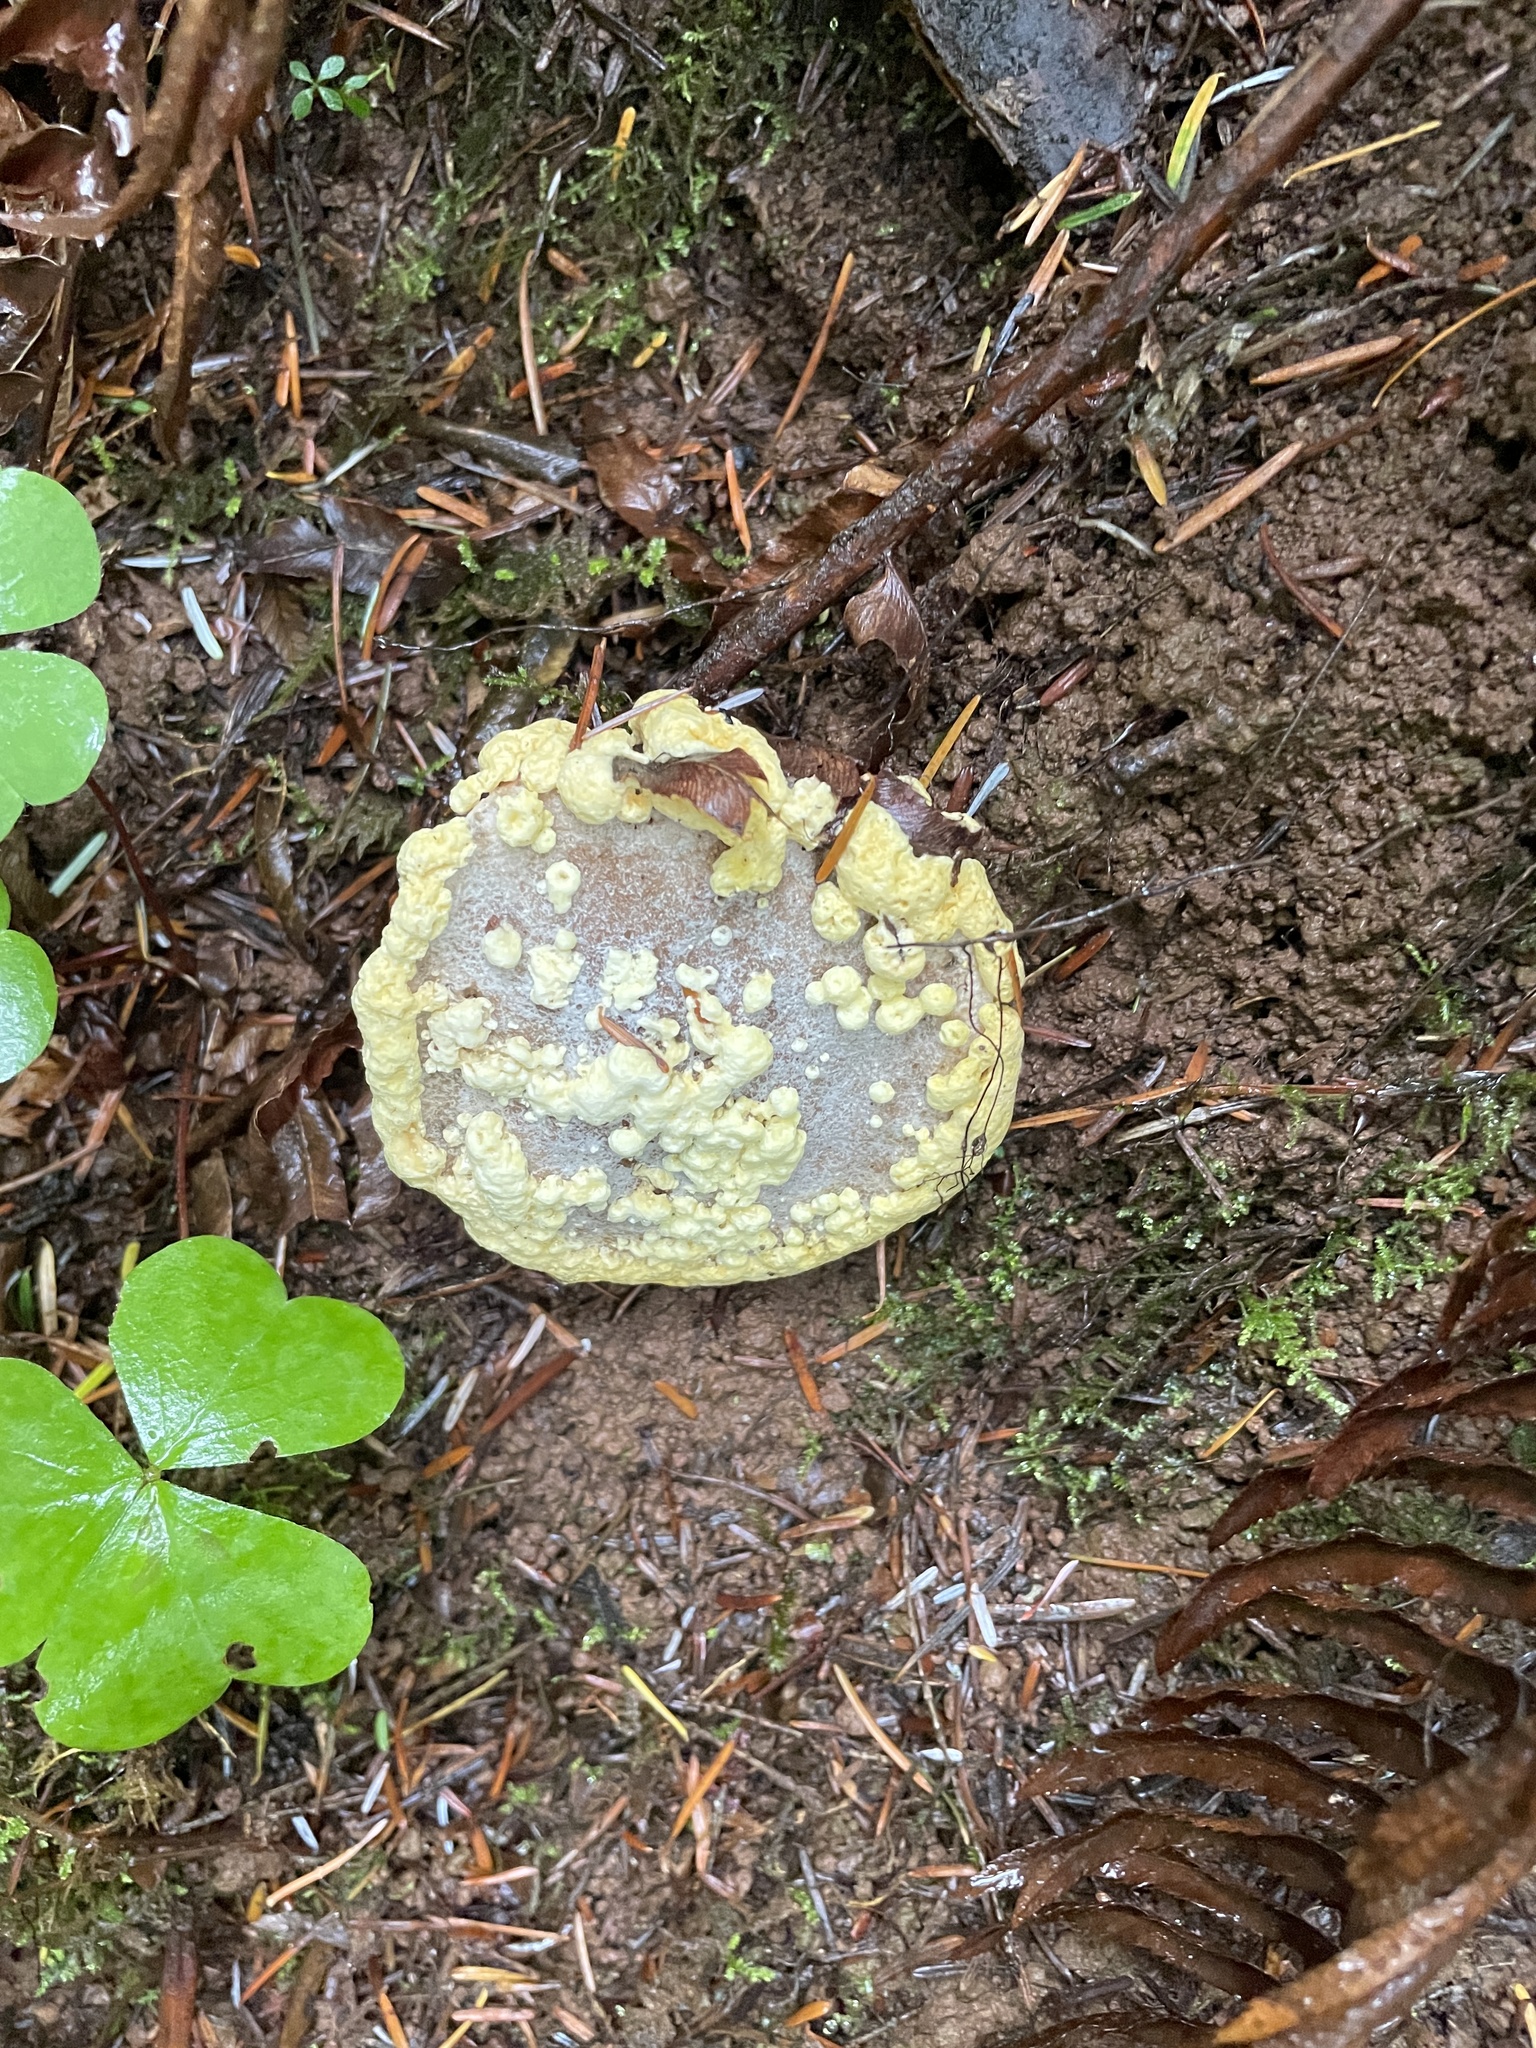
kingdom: Fungi
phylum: Ascomycota
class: Sordariomycetes
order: Hypocreales
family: Hypocreaceae
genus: Hypomyces
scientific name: Hypomyces chrysospermus
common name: Bolete mould
